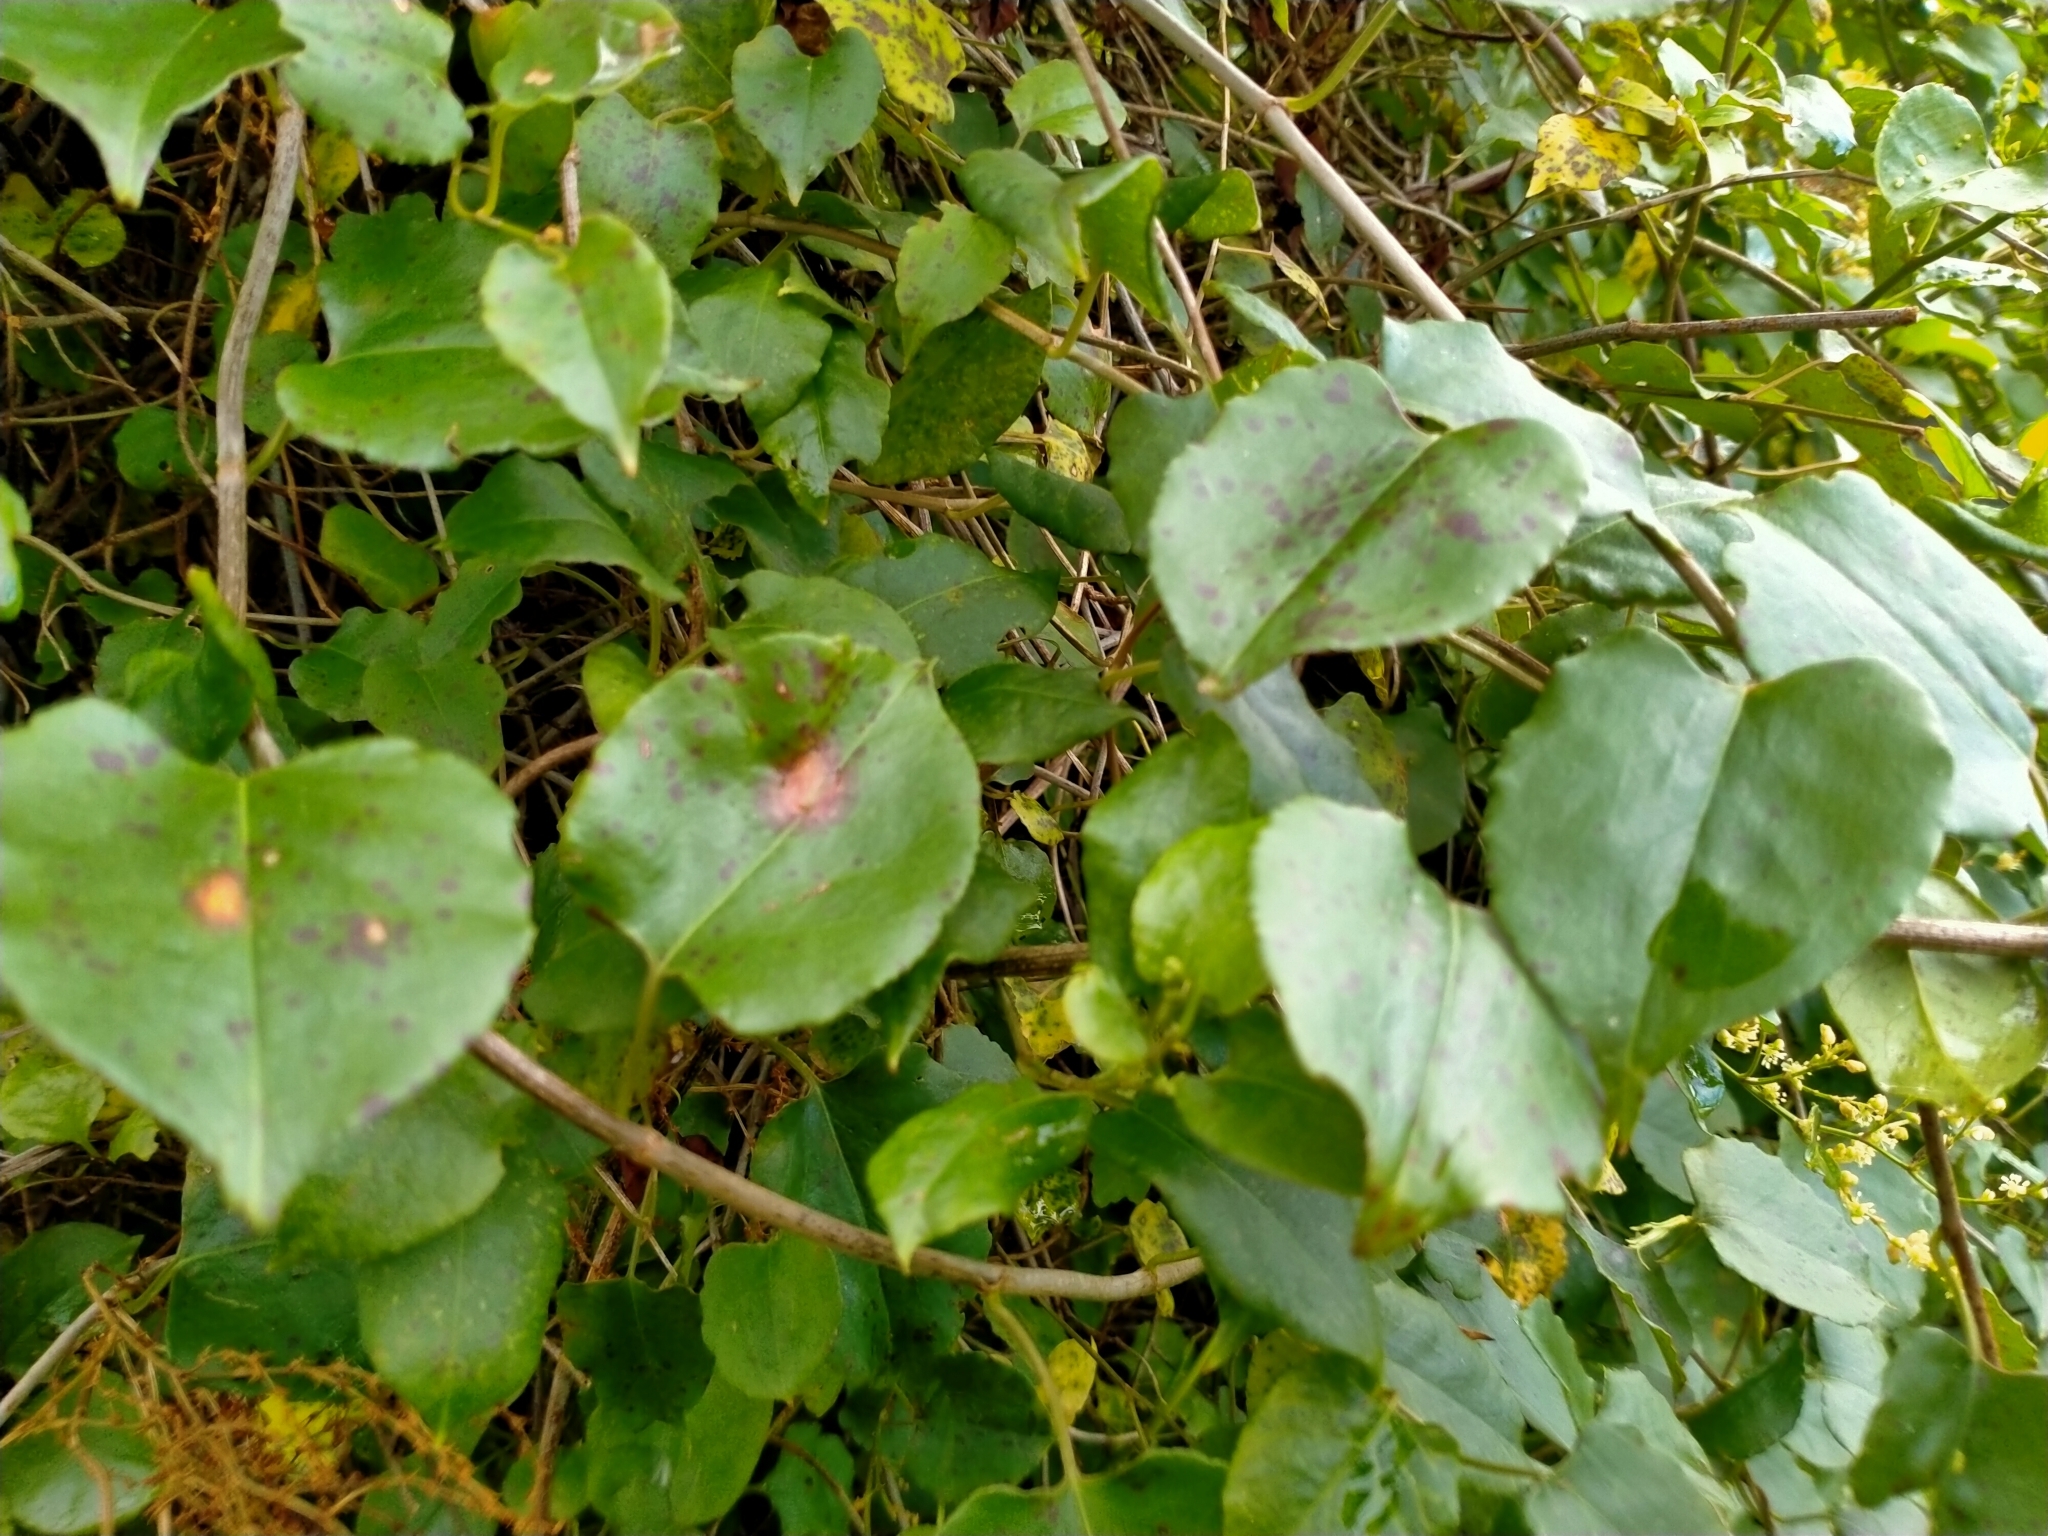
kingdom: Plantae
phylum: Tracheophyta
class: Magnoliopsida
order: Caryophyllales
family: Polygonaceae
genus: Muehlenbeckia
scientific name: Muehlenbeckia australis
